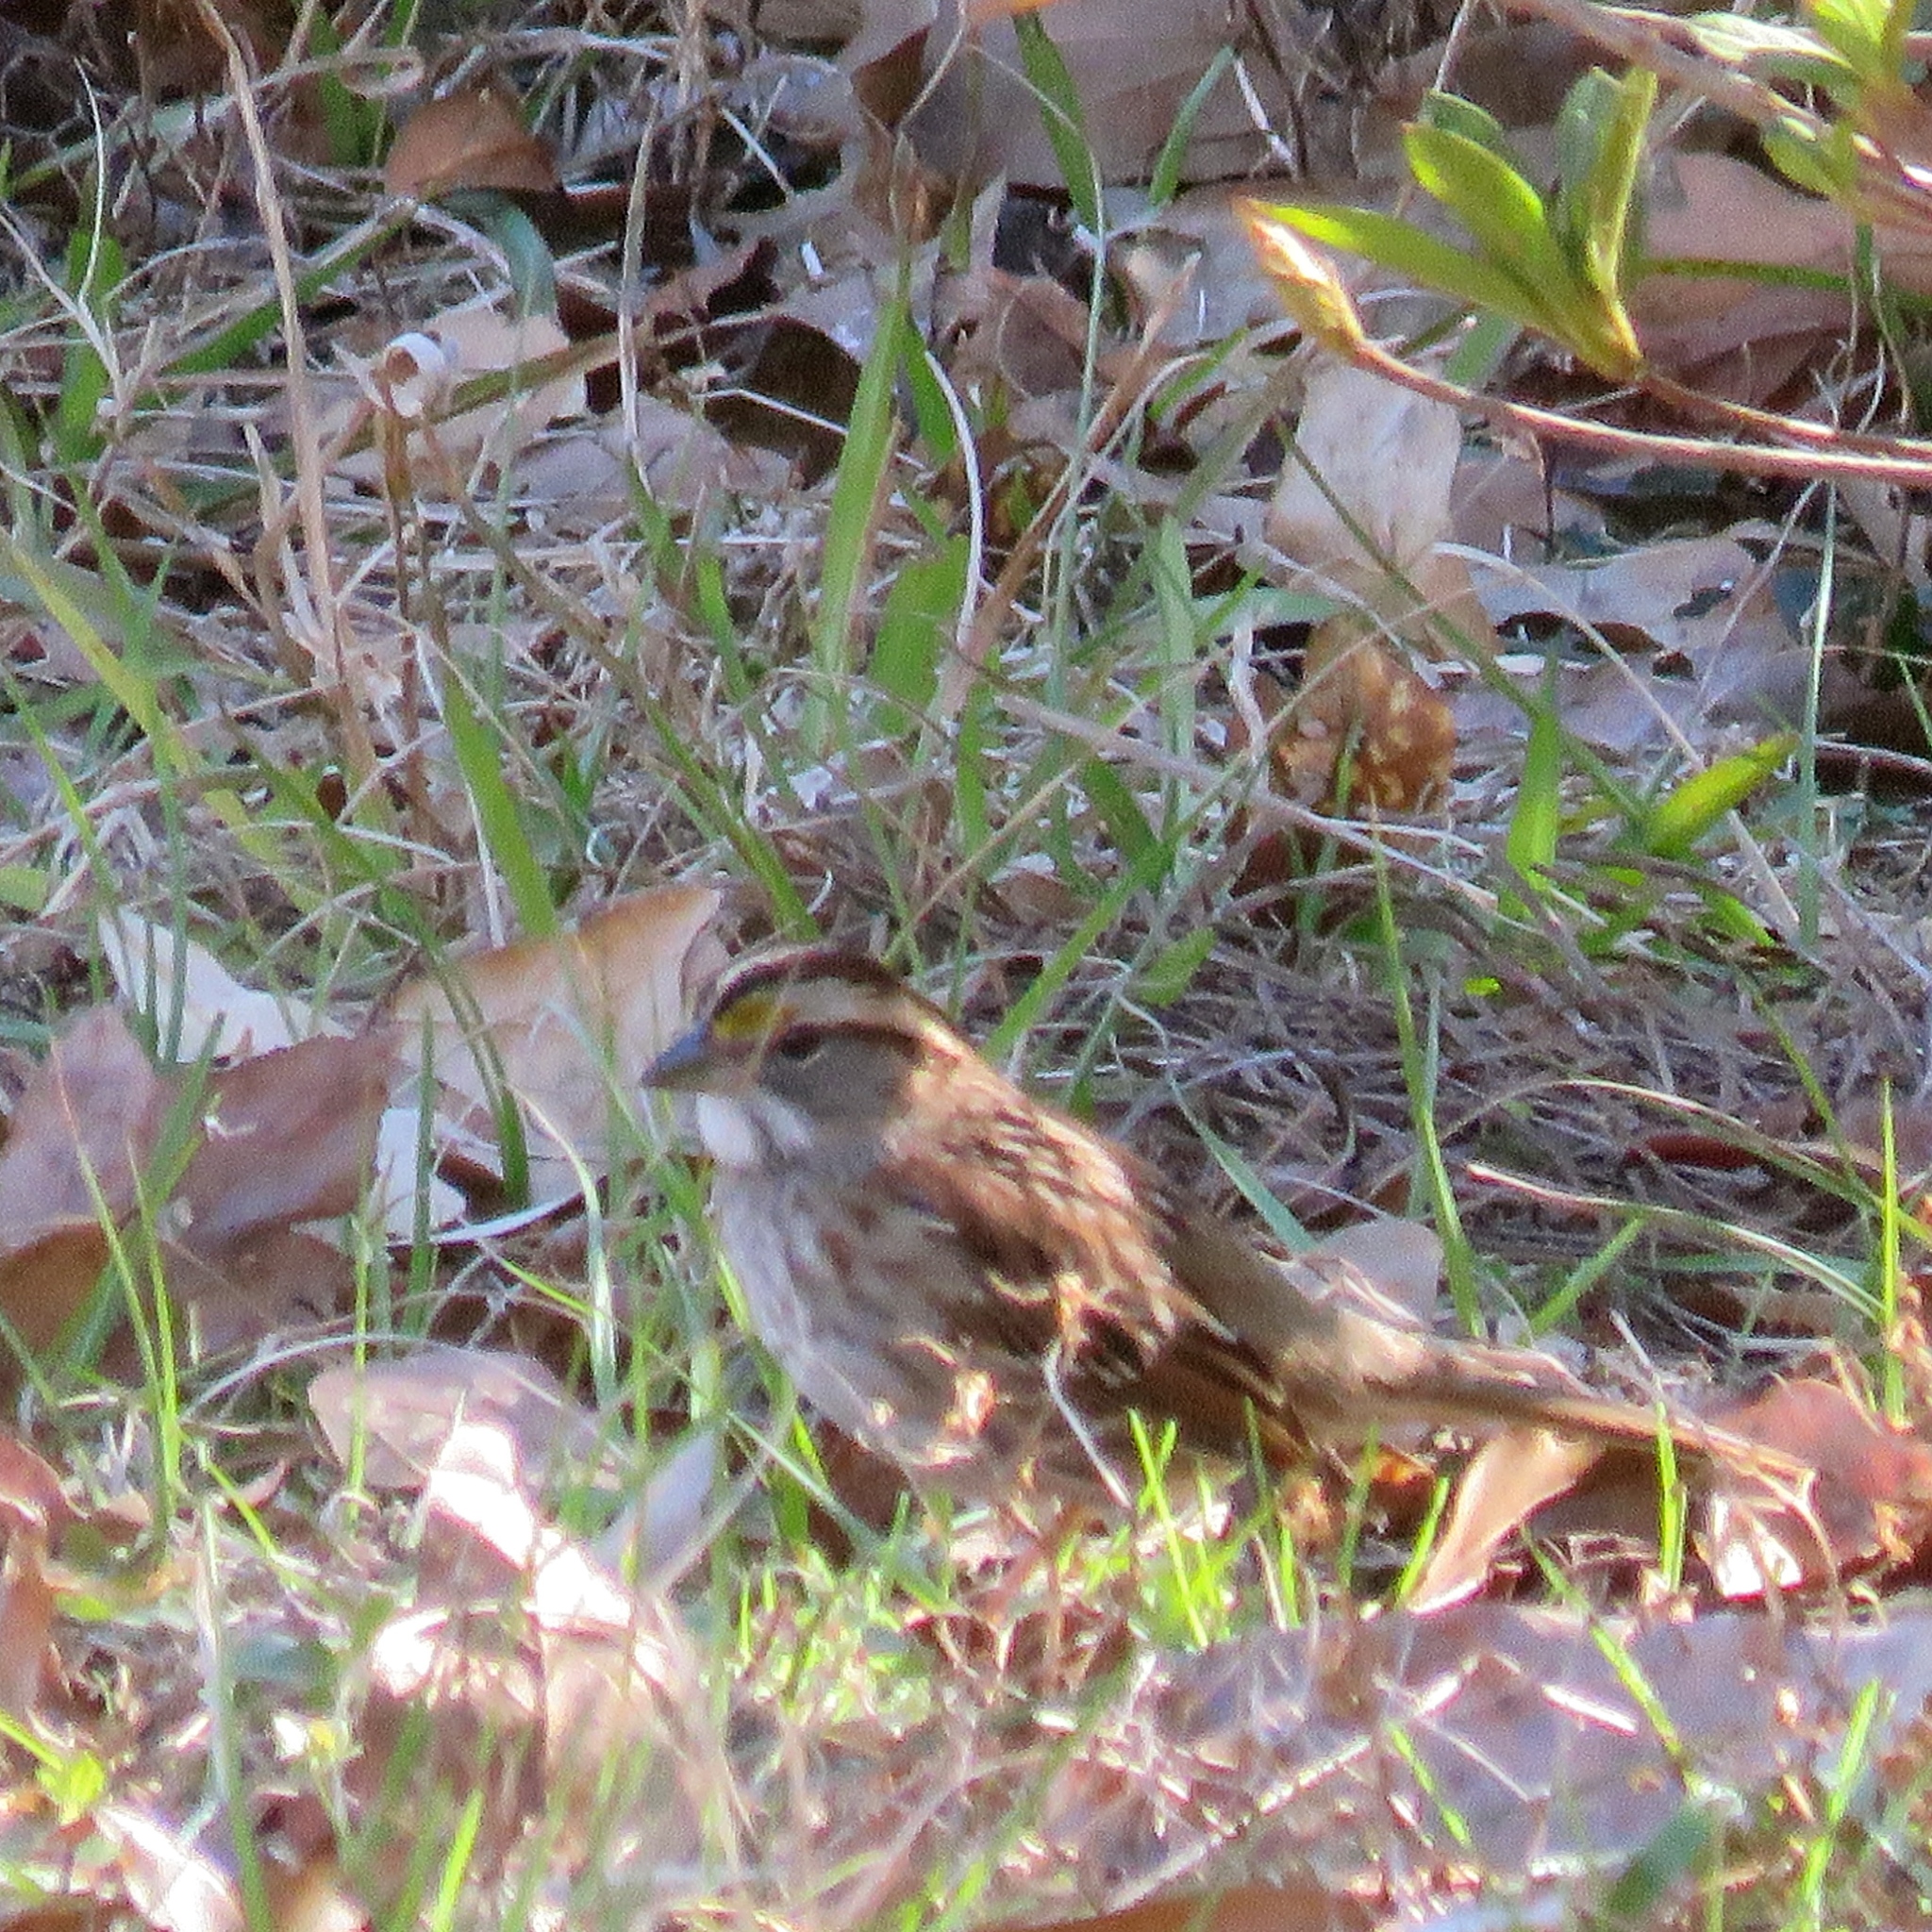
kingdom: Animalia
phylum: Chordata
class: Aves
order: Passeriformes
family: Passerellidae
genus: Zonotrichia
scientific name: Zonotrichia albicollis
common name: White-throated sparrow
